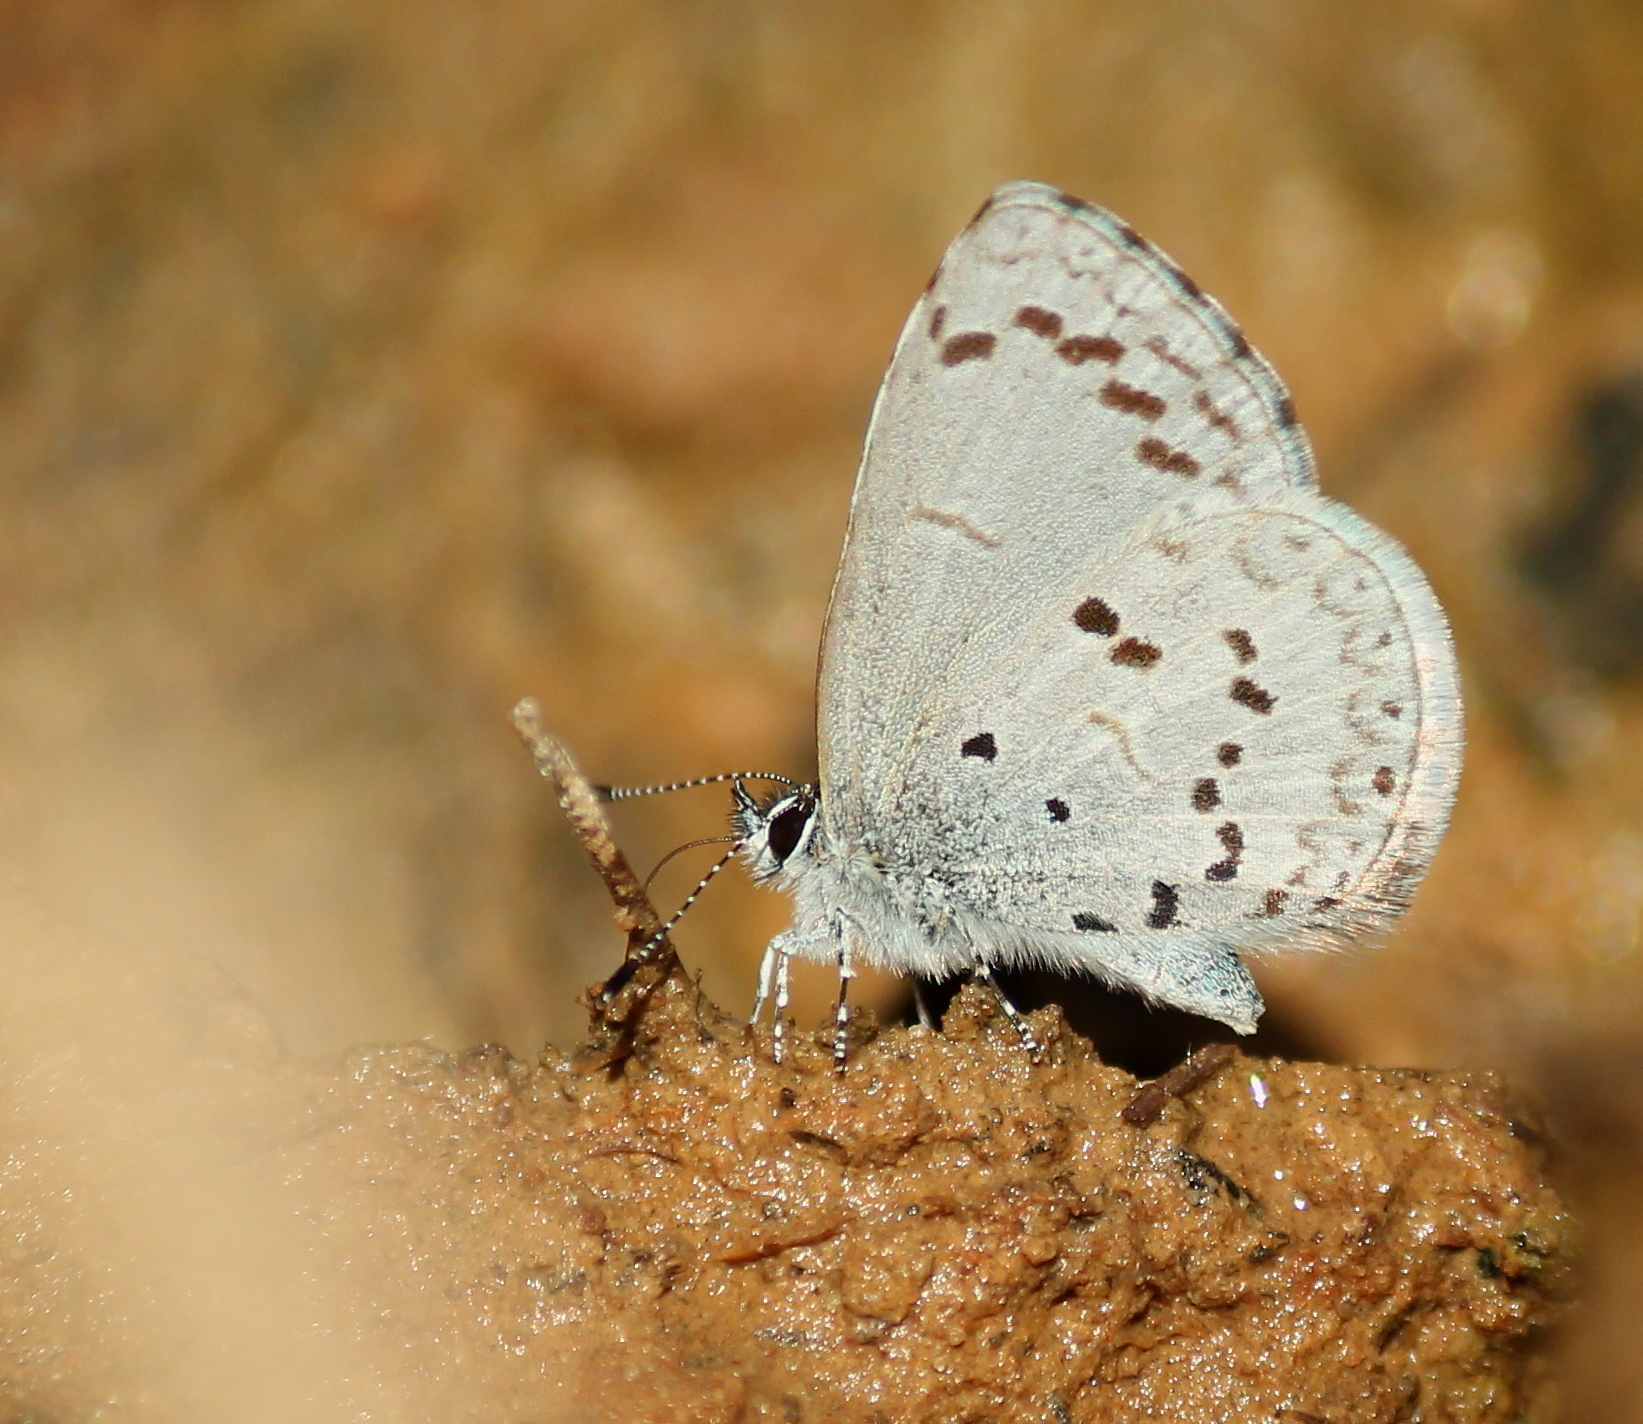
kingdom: Animalia
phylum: Arthropoda
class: Insecta
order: Lepidoptera
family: Lycaenidae
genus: Celastrina
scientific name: Celastrina ladon
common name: Spring azure
